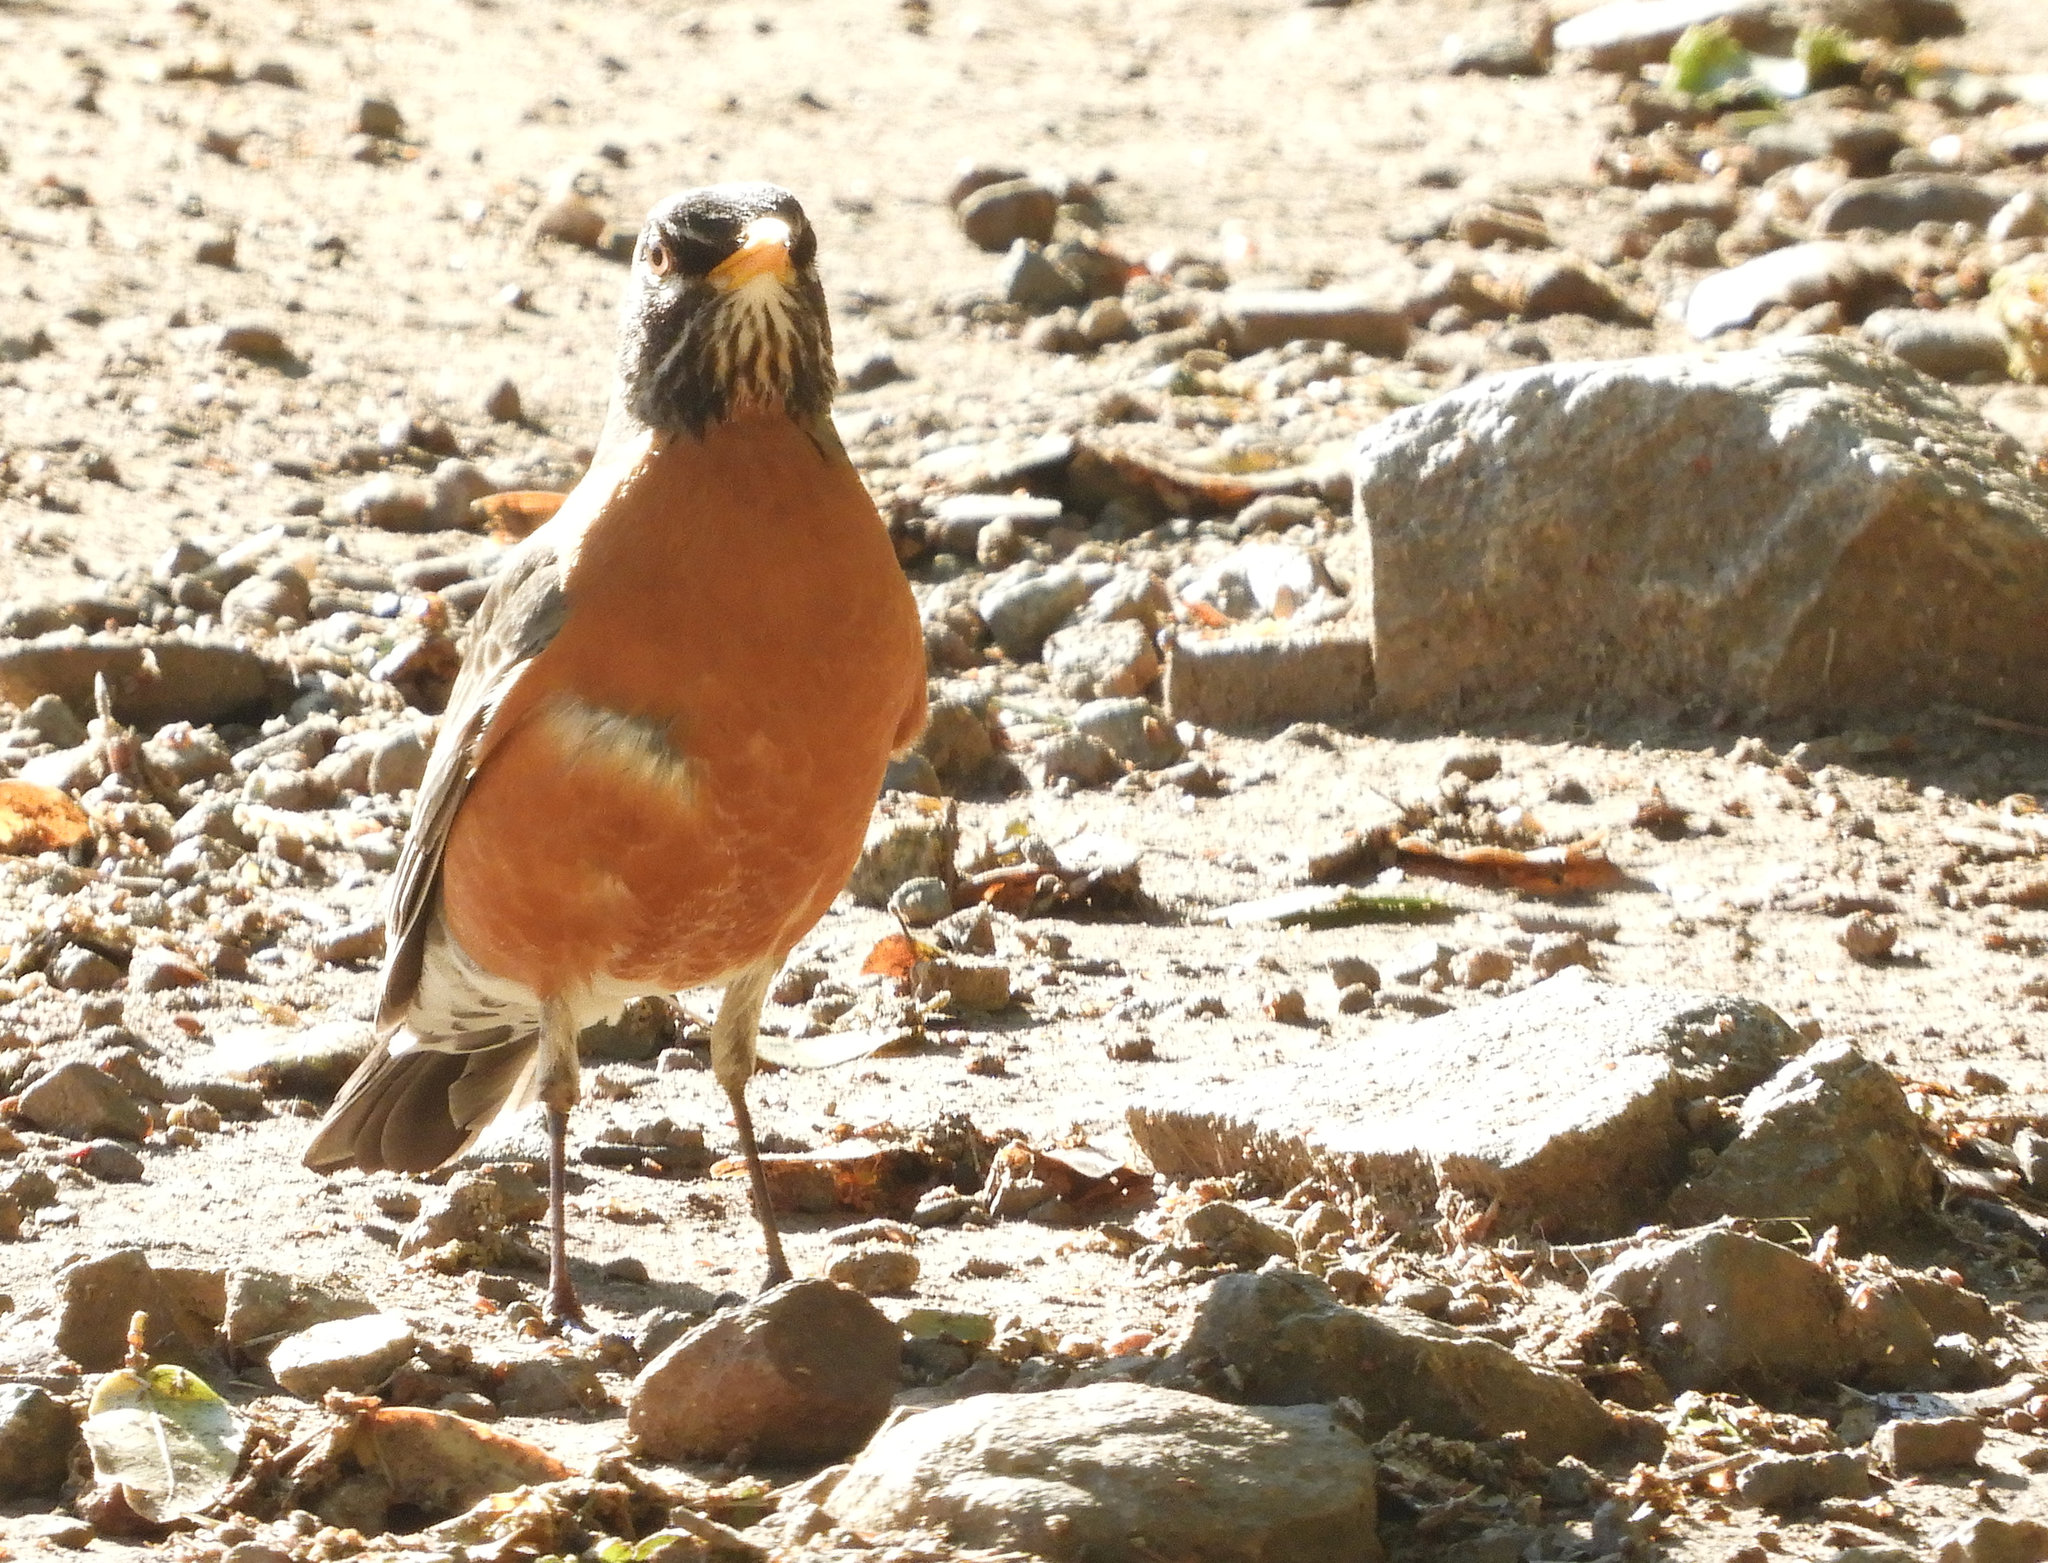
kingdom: Animalia
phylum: Chordata
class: Aves
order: Passeriformes
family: Turdidae
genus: Turdus
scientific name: Turdus migratorius
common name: American robin
